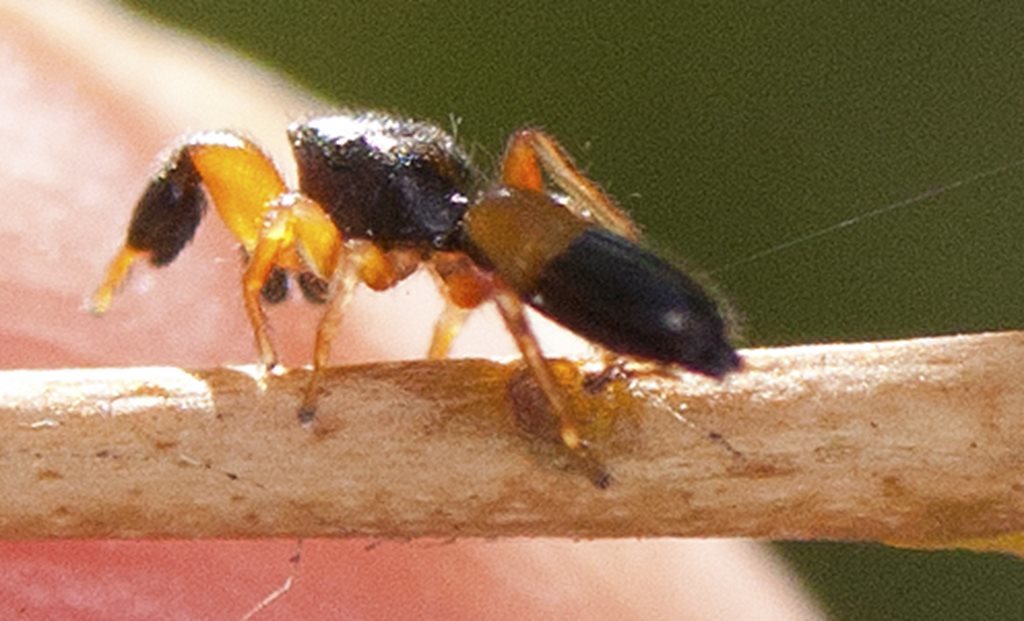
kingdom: Animalia
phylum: Arthropoda
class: Arachnida
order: Araneae
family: Salticidae
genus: Judalana
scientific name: Judalana lutea
